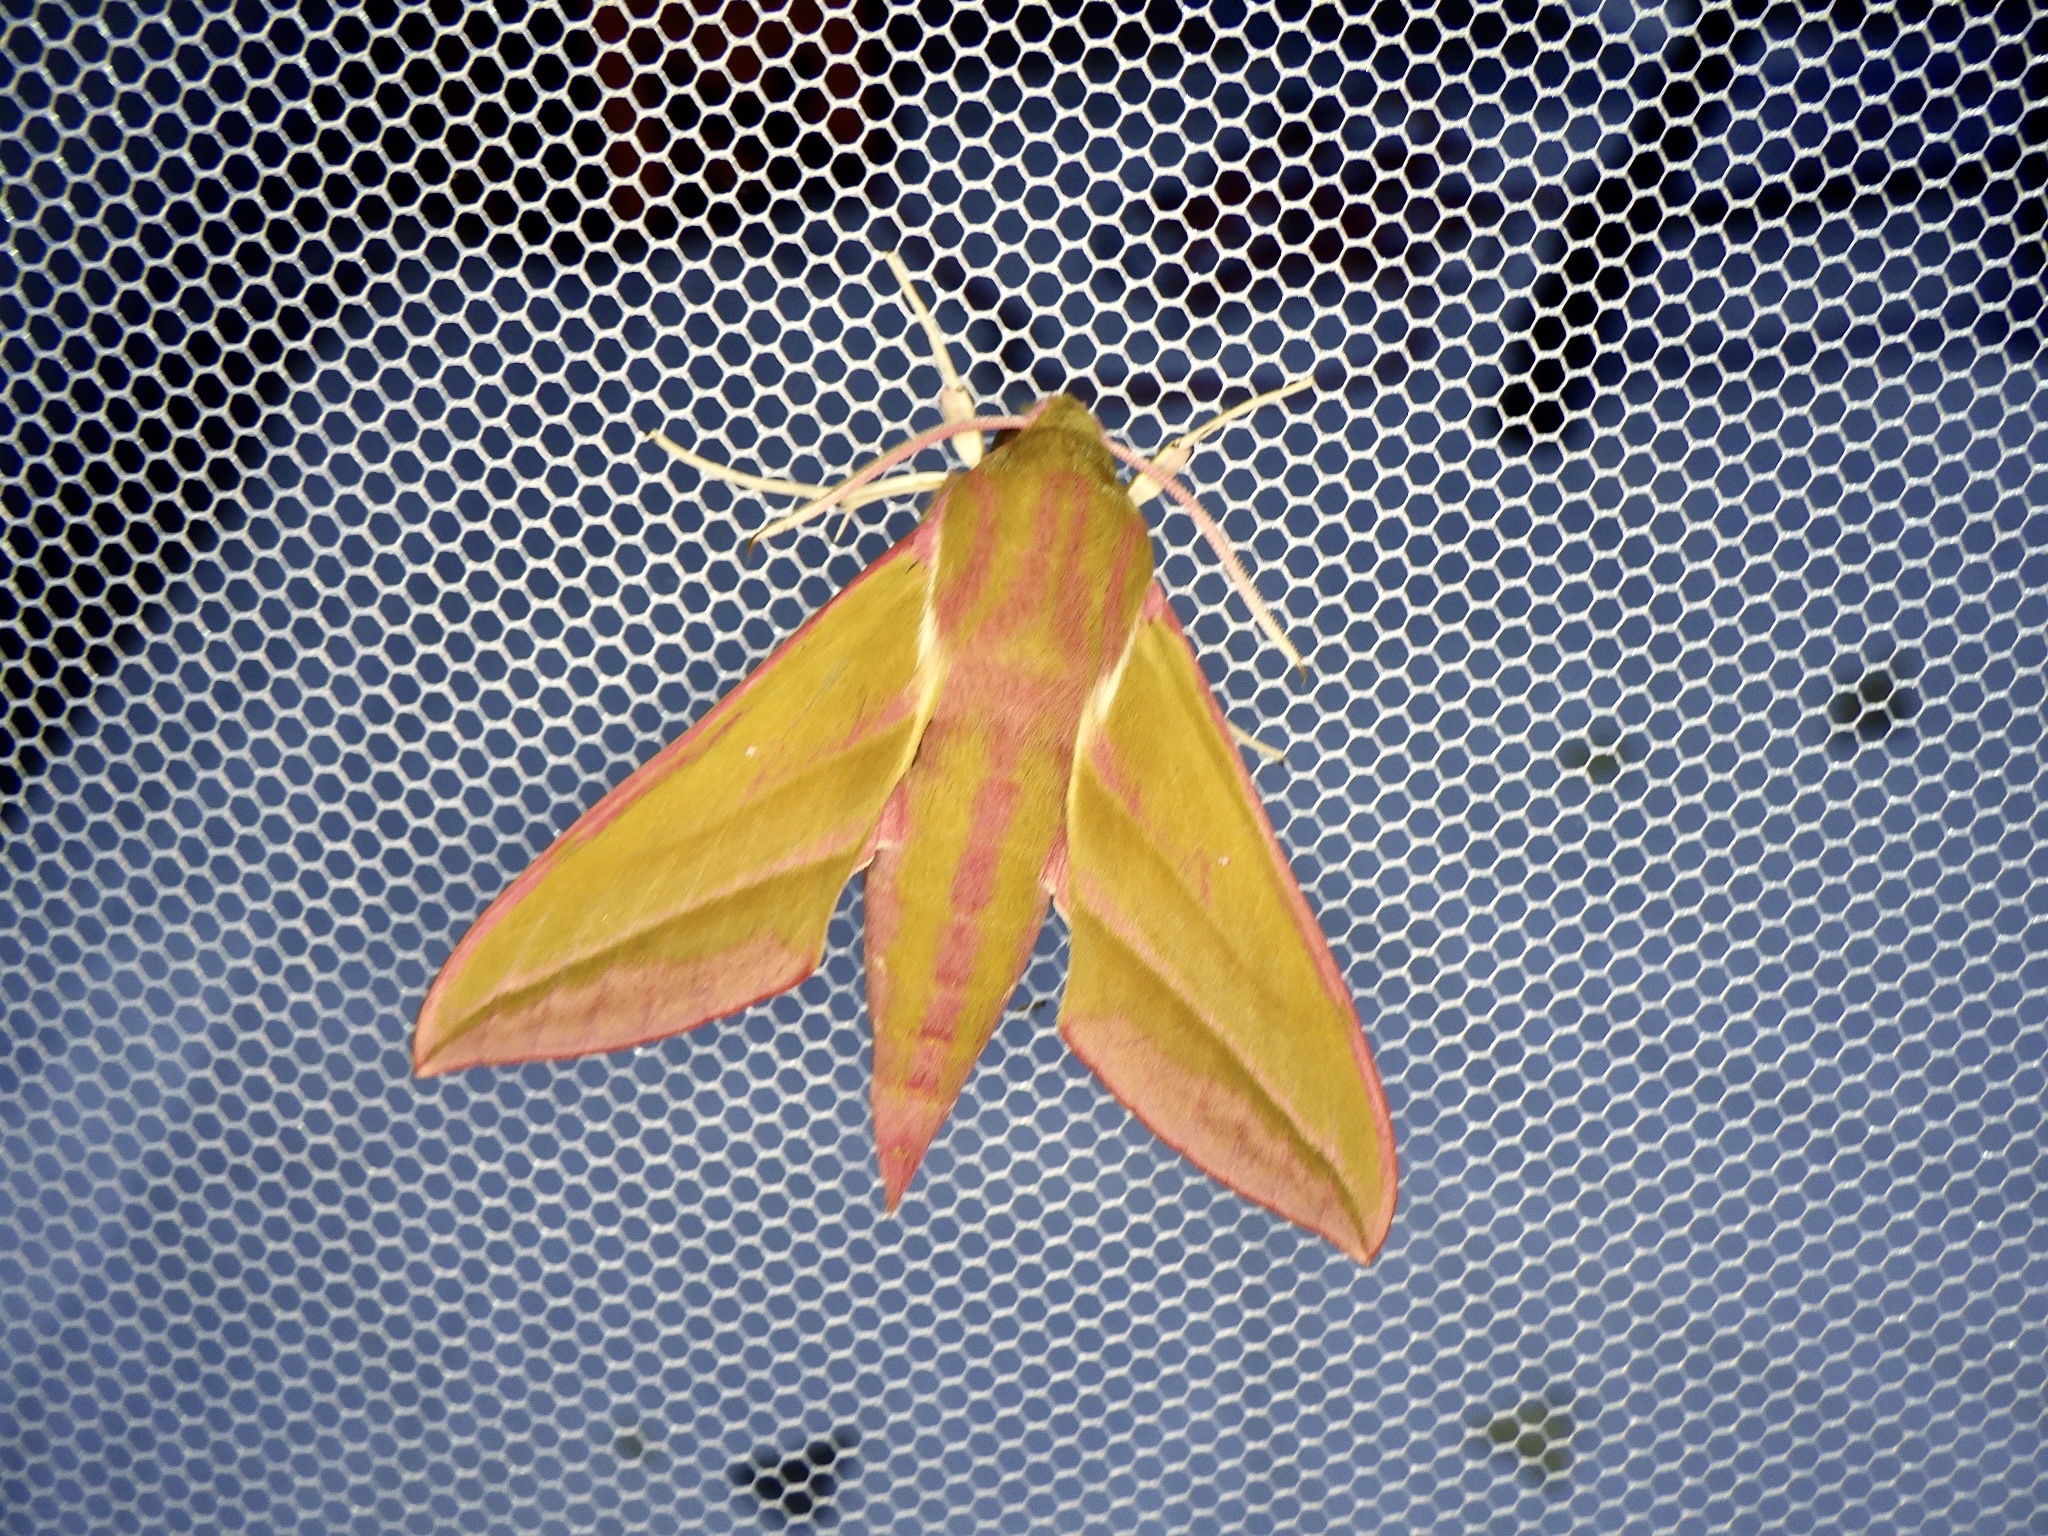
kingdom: Animalia
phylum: Arthropoda
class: Insecta
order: Lepidoptera
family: Sphingidae
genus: Deilephila
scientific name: Deilephila elpenor
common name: Elephant hawk-moth
